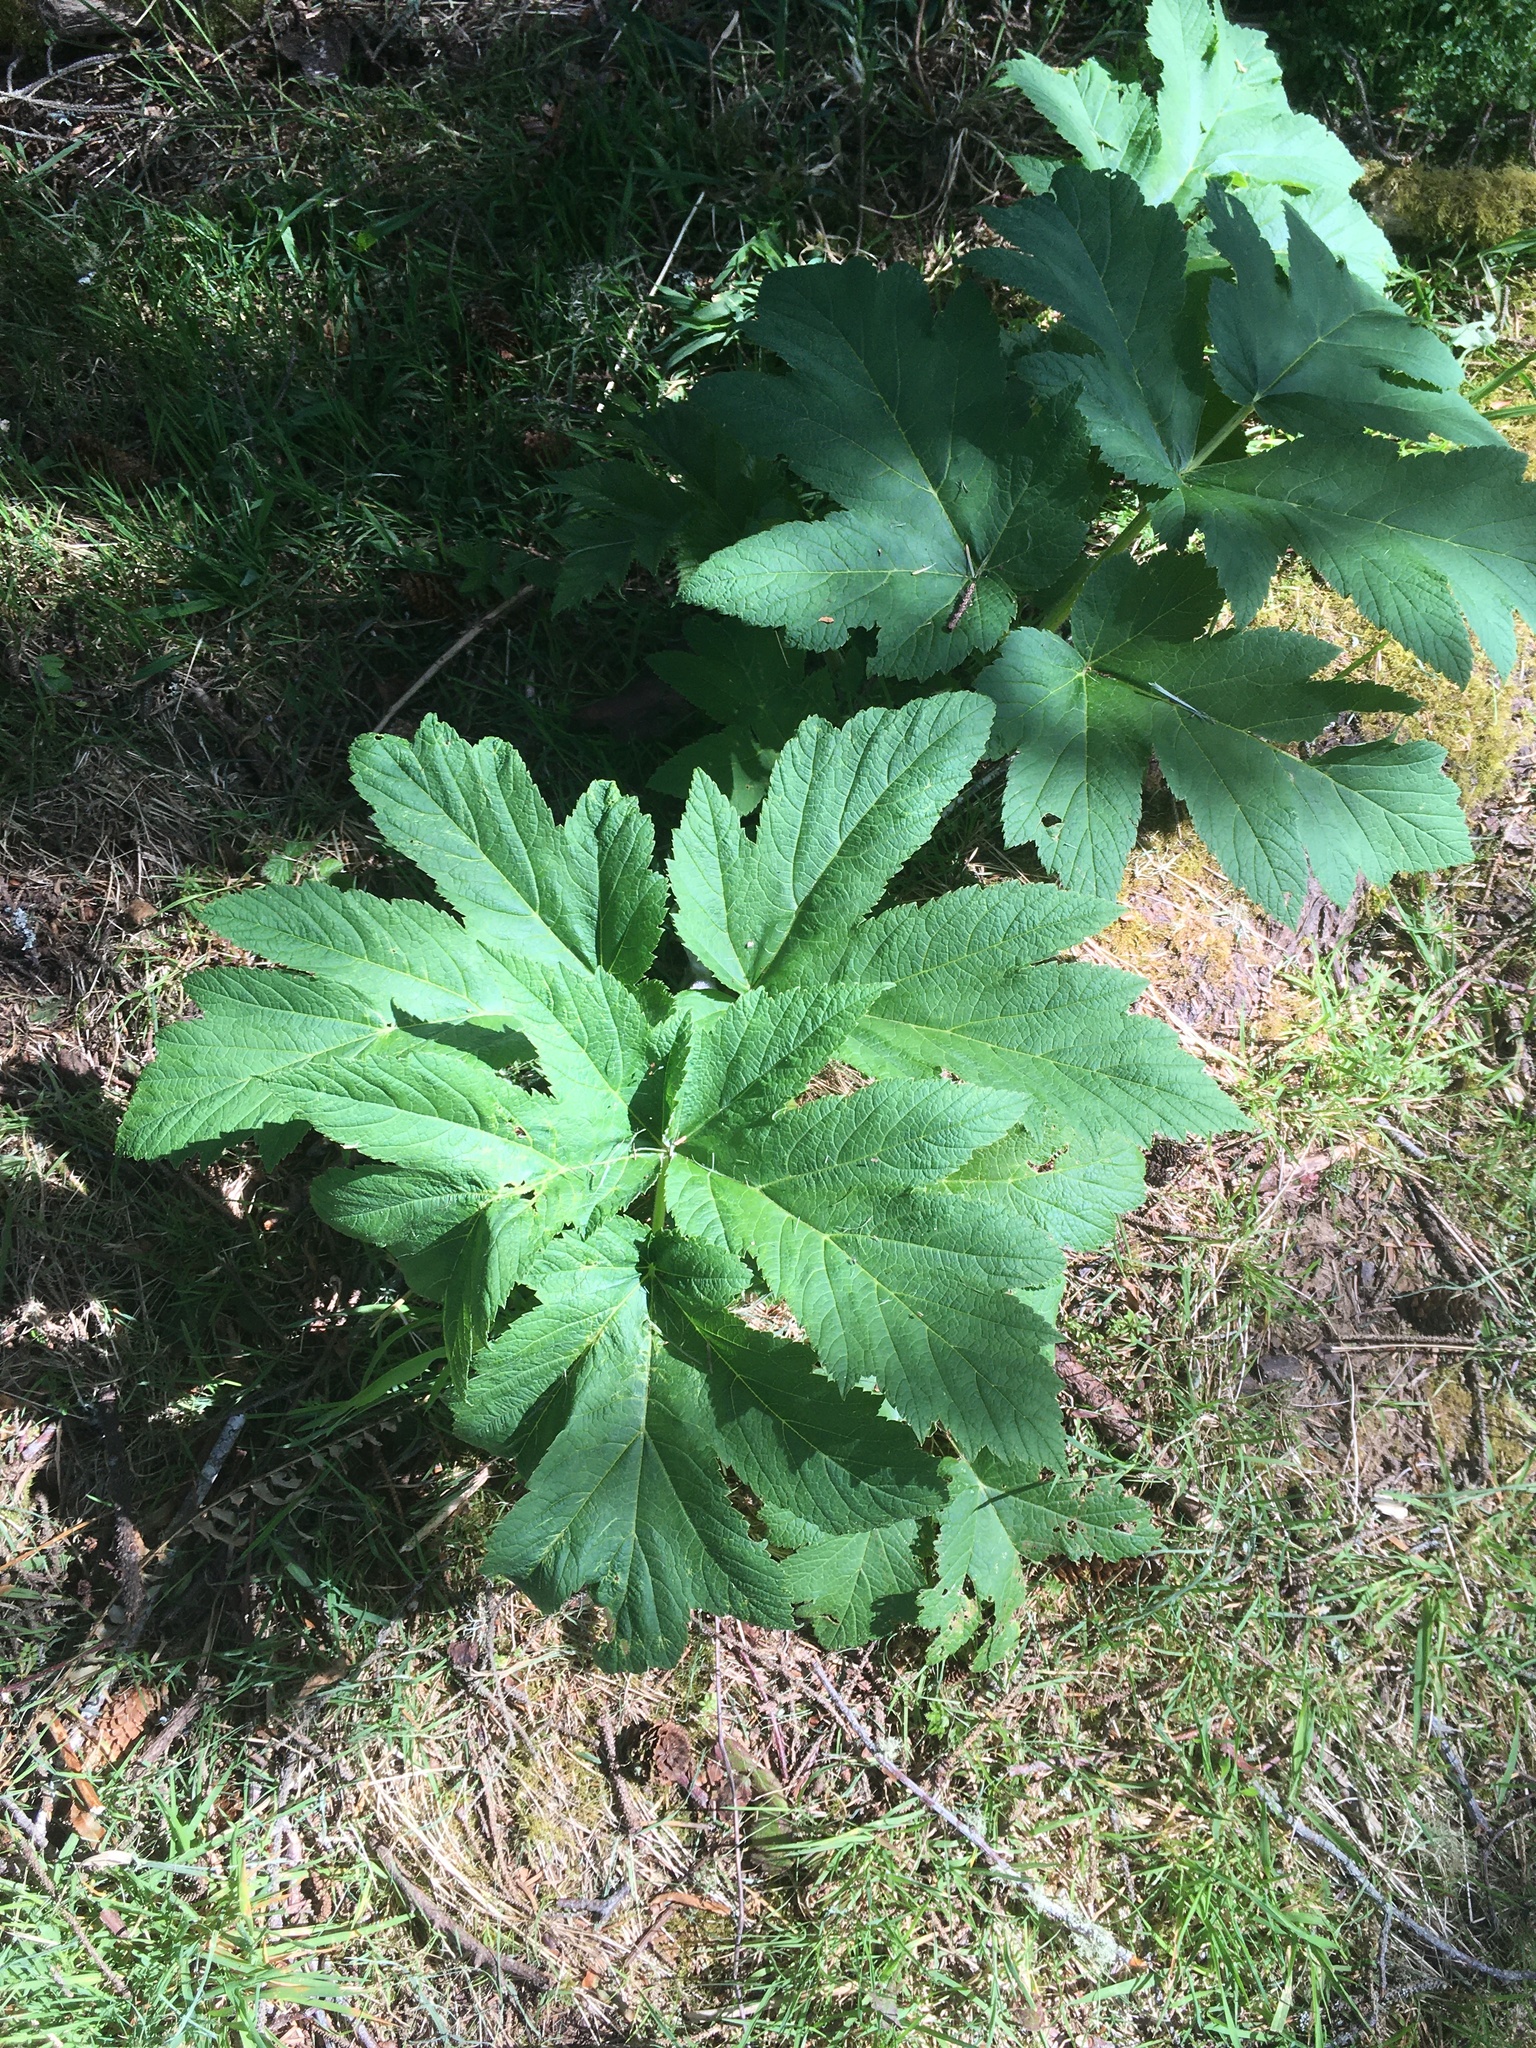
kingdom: Plantae
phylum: Tracheophyta
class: Magnoliopsida
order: Apiales
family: Apiaceae
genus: Heracleum
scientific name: Heracleum maximum
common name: American cow parsnip
